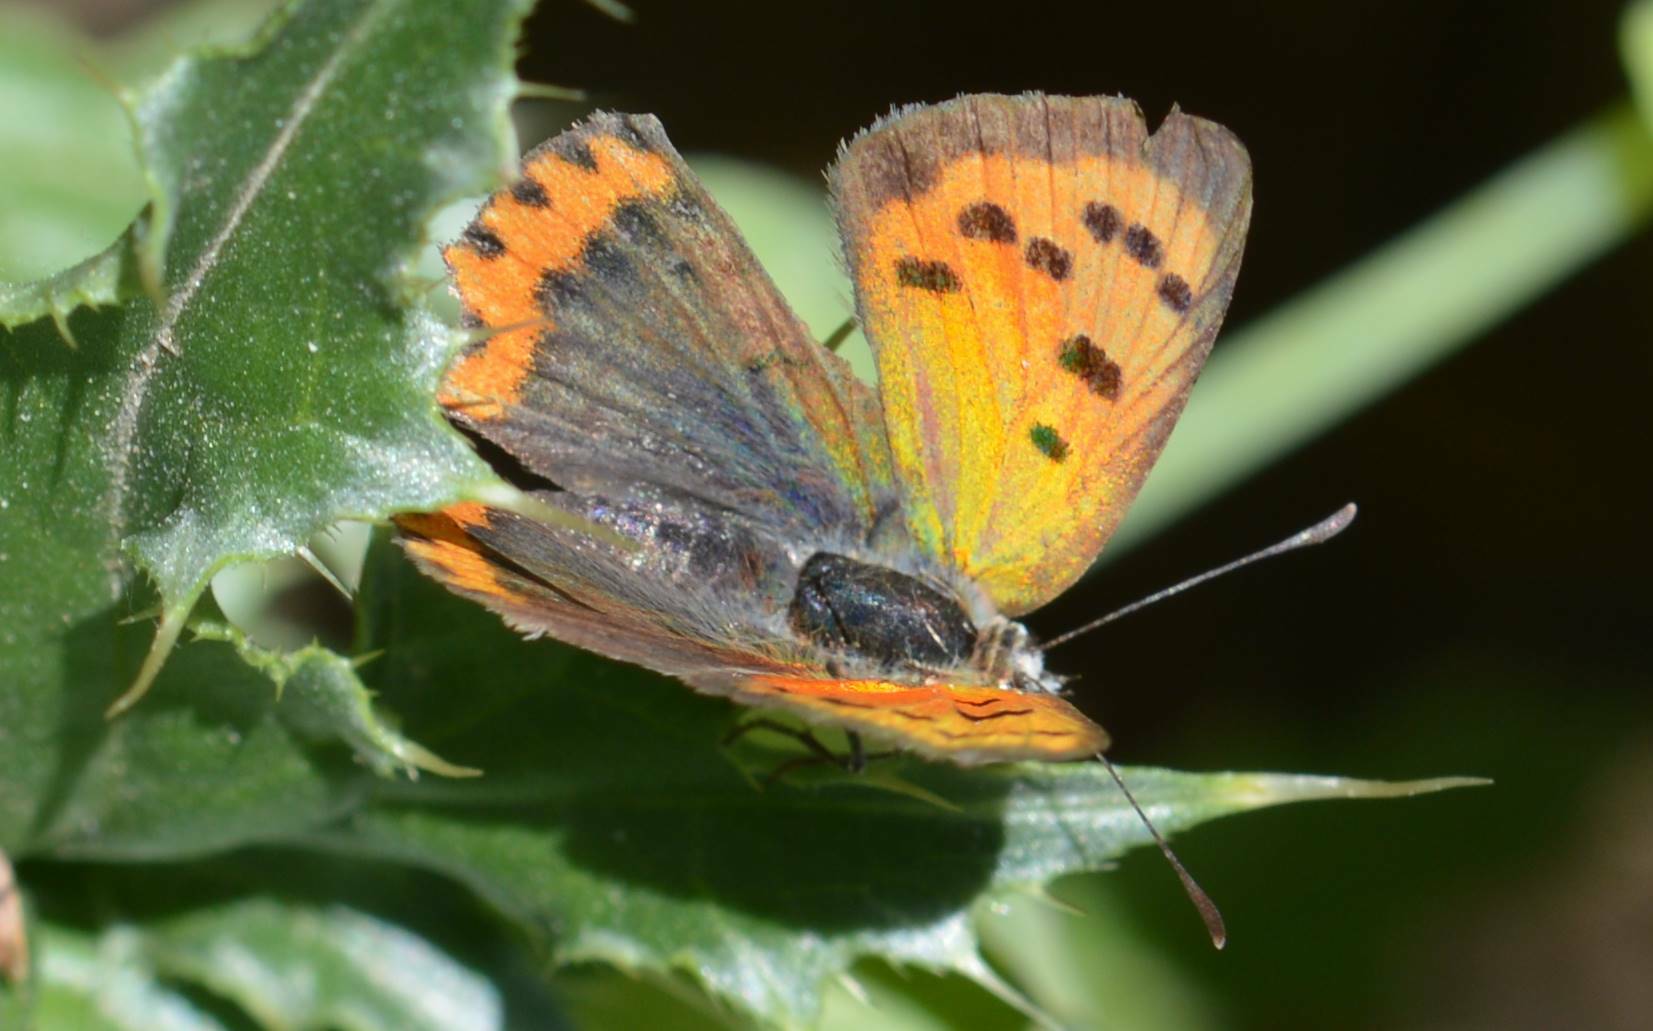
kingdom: Animalia
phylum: Arthropoda
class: Insecta
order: Lepidoptera
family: Lycaenidae
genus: Lycaena
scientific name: Lycaena phlaeas
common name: Small copper
